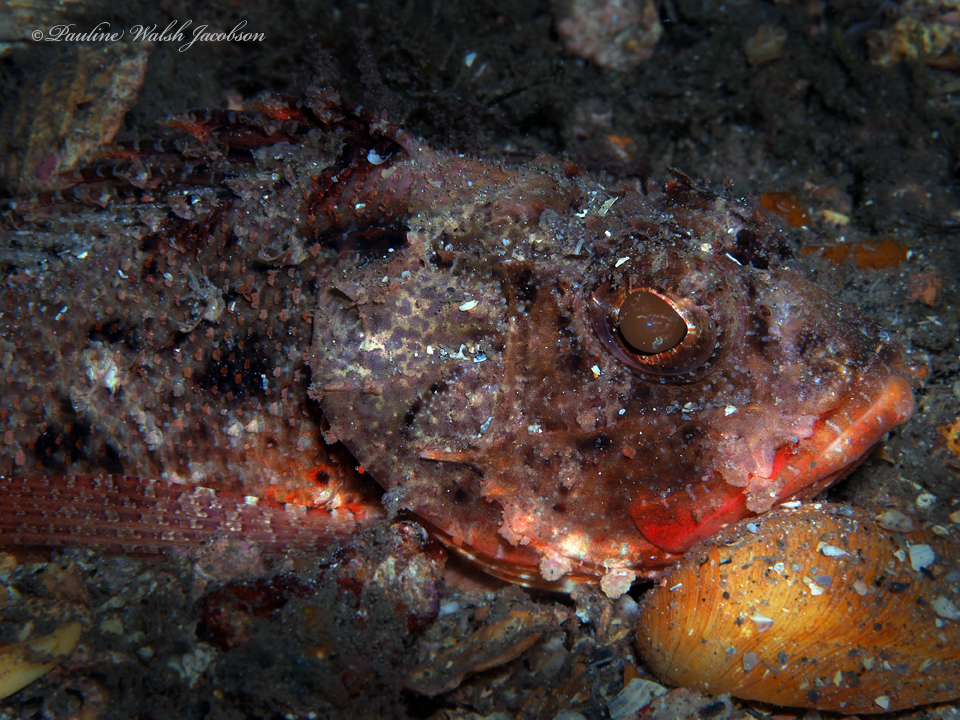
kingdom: Animalia
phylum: Chordata
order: Scorpaeniformes
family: Scorpaenidae
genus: Scorpaena
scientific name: Scorpaena brasiliensis
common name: Barbfish
